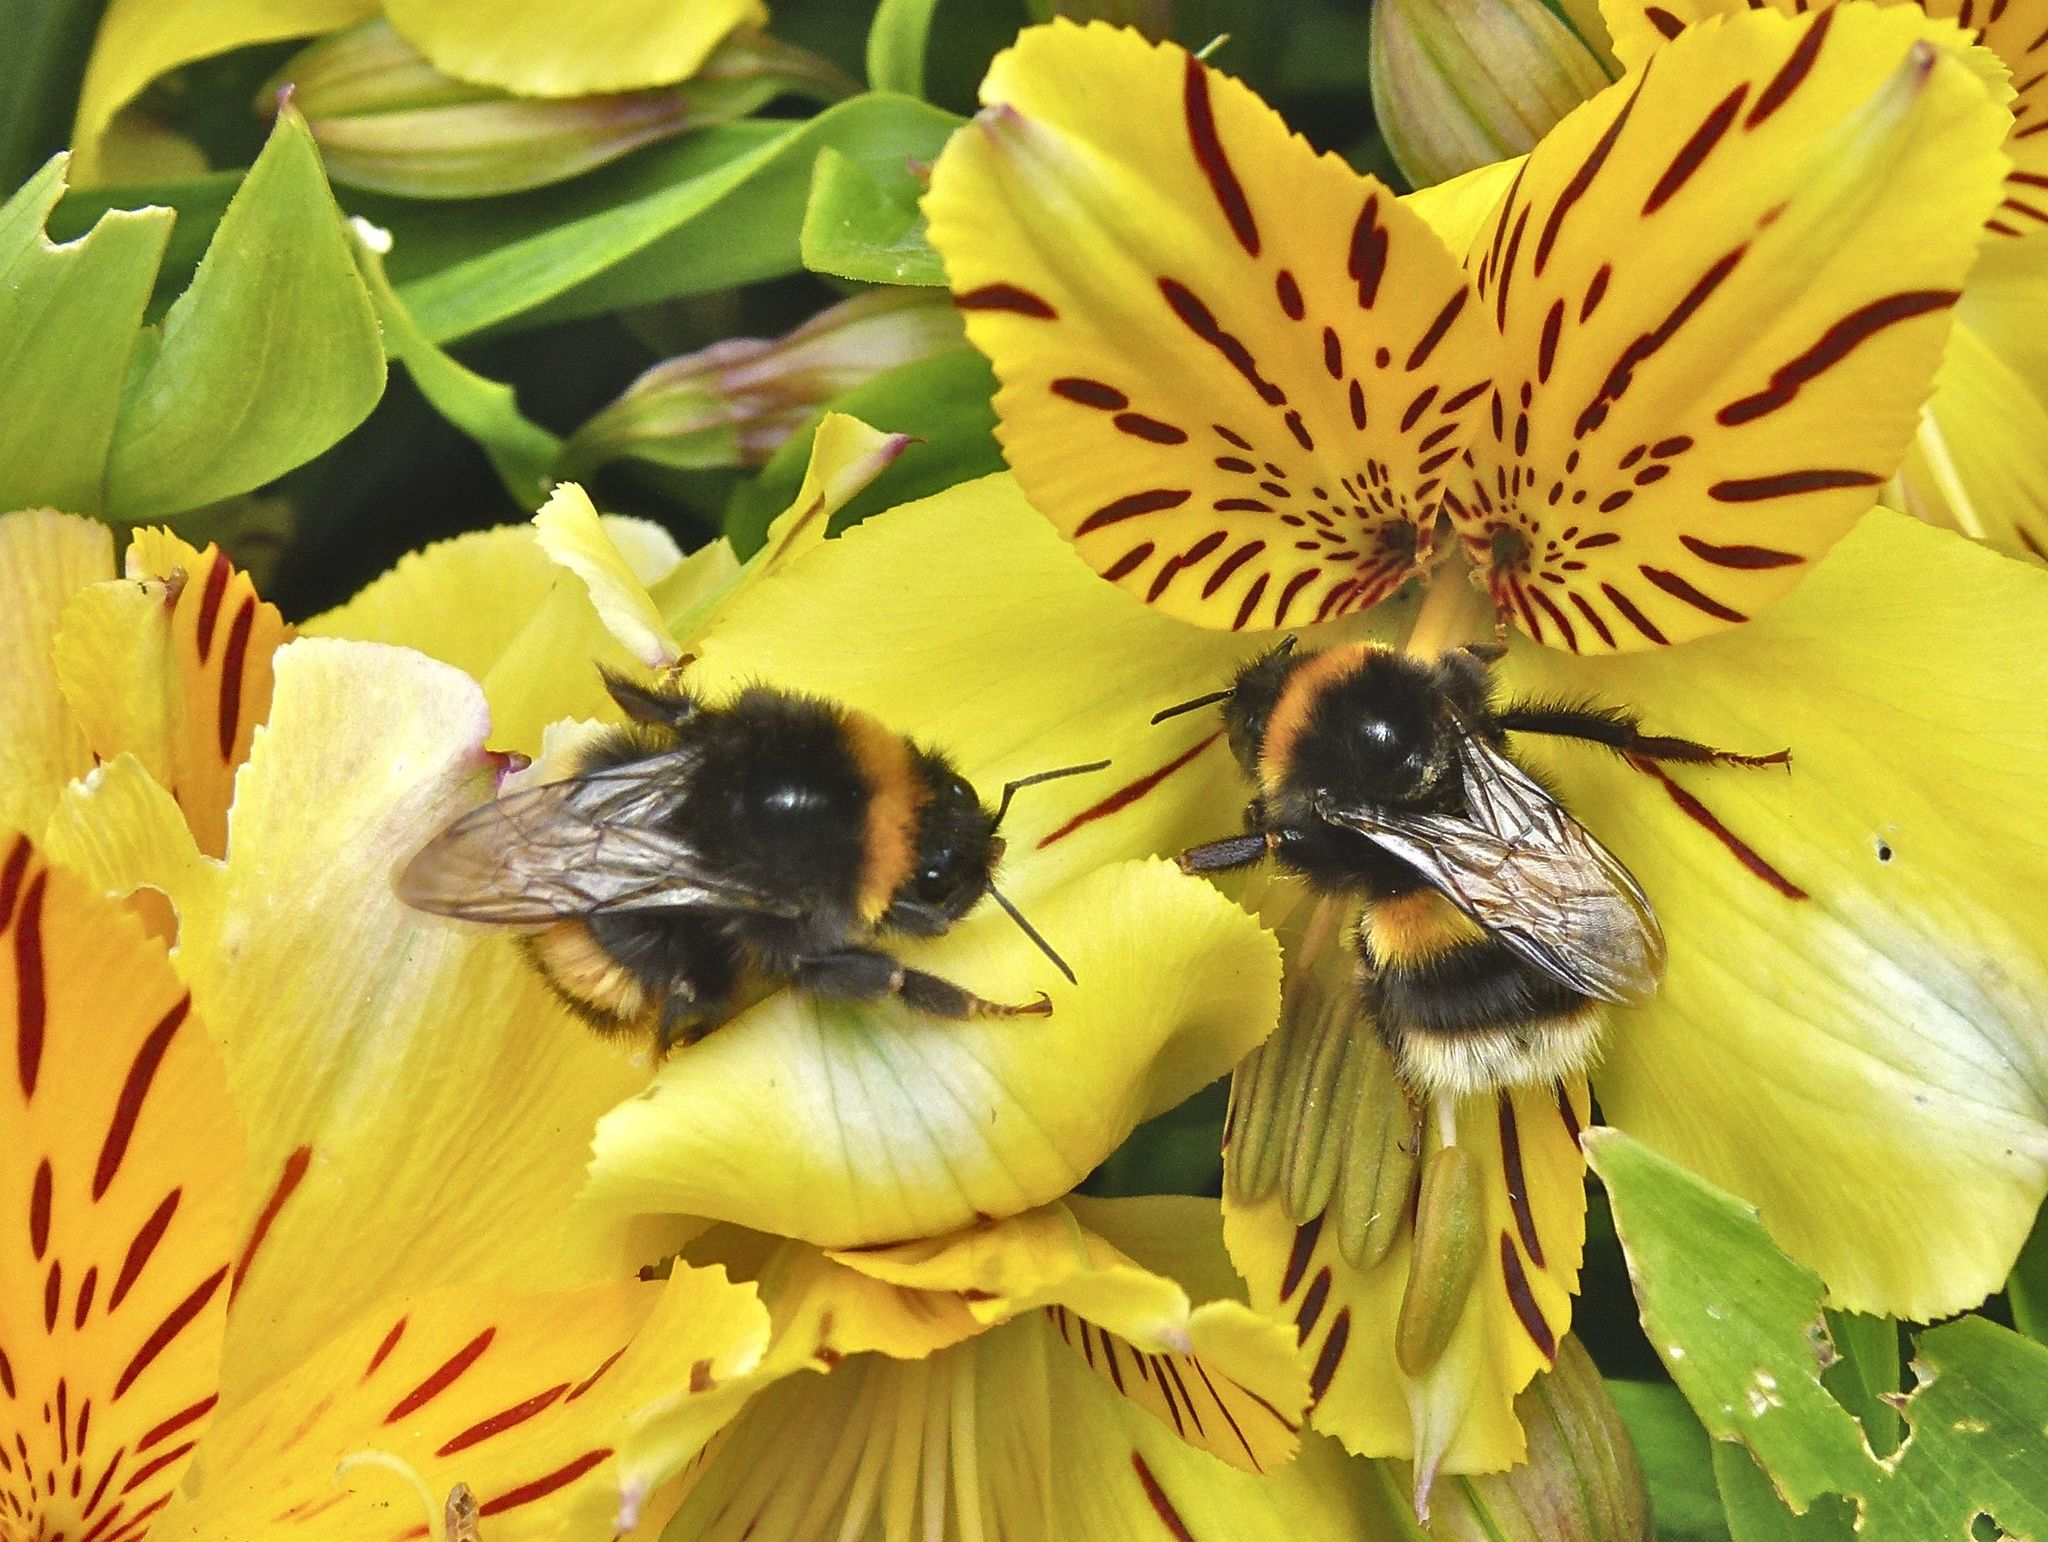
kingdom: Animalia
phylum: Arthropoda
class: Insecta
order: Hymenoptera
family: Apidae
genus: Bombus
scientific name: Bombus terrestris
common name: Buff-tailed bumblebee
